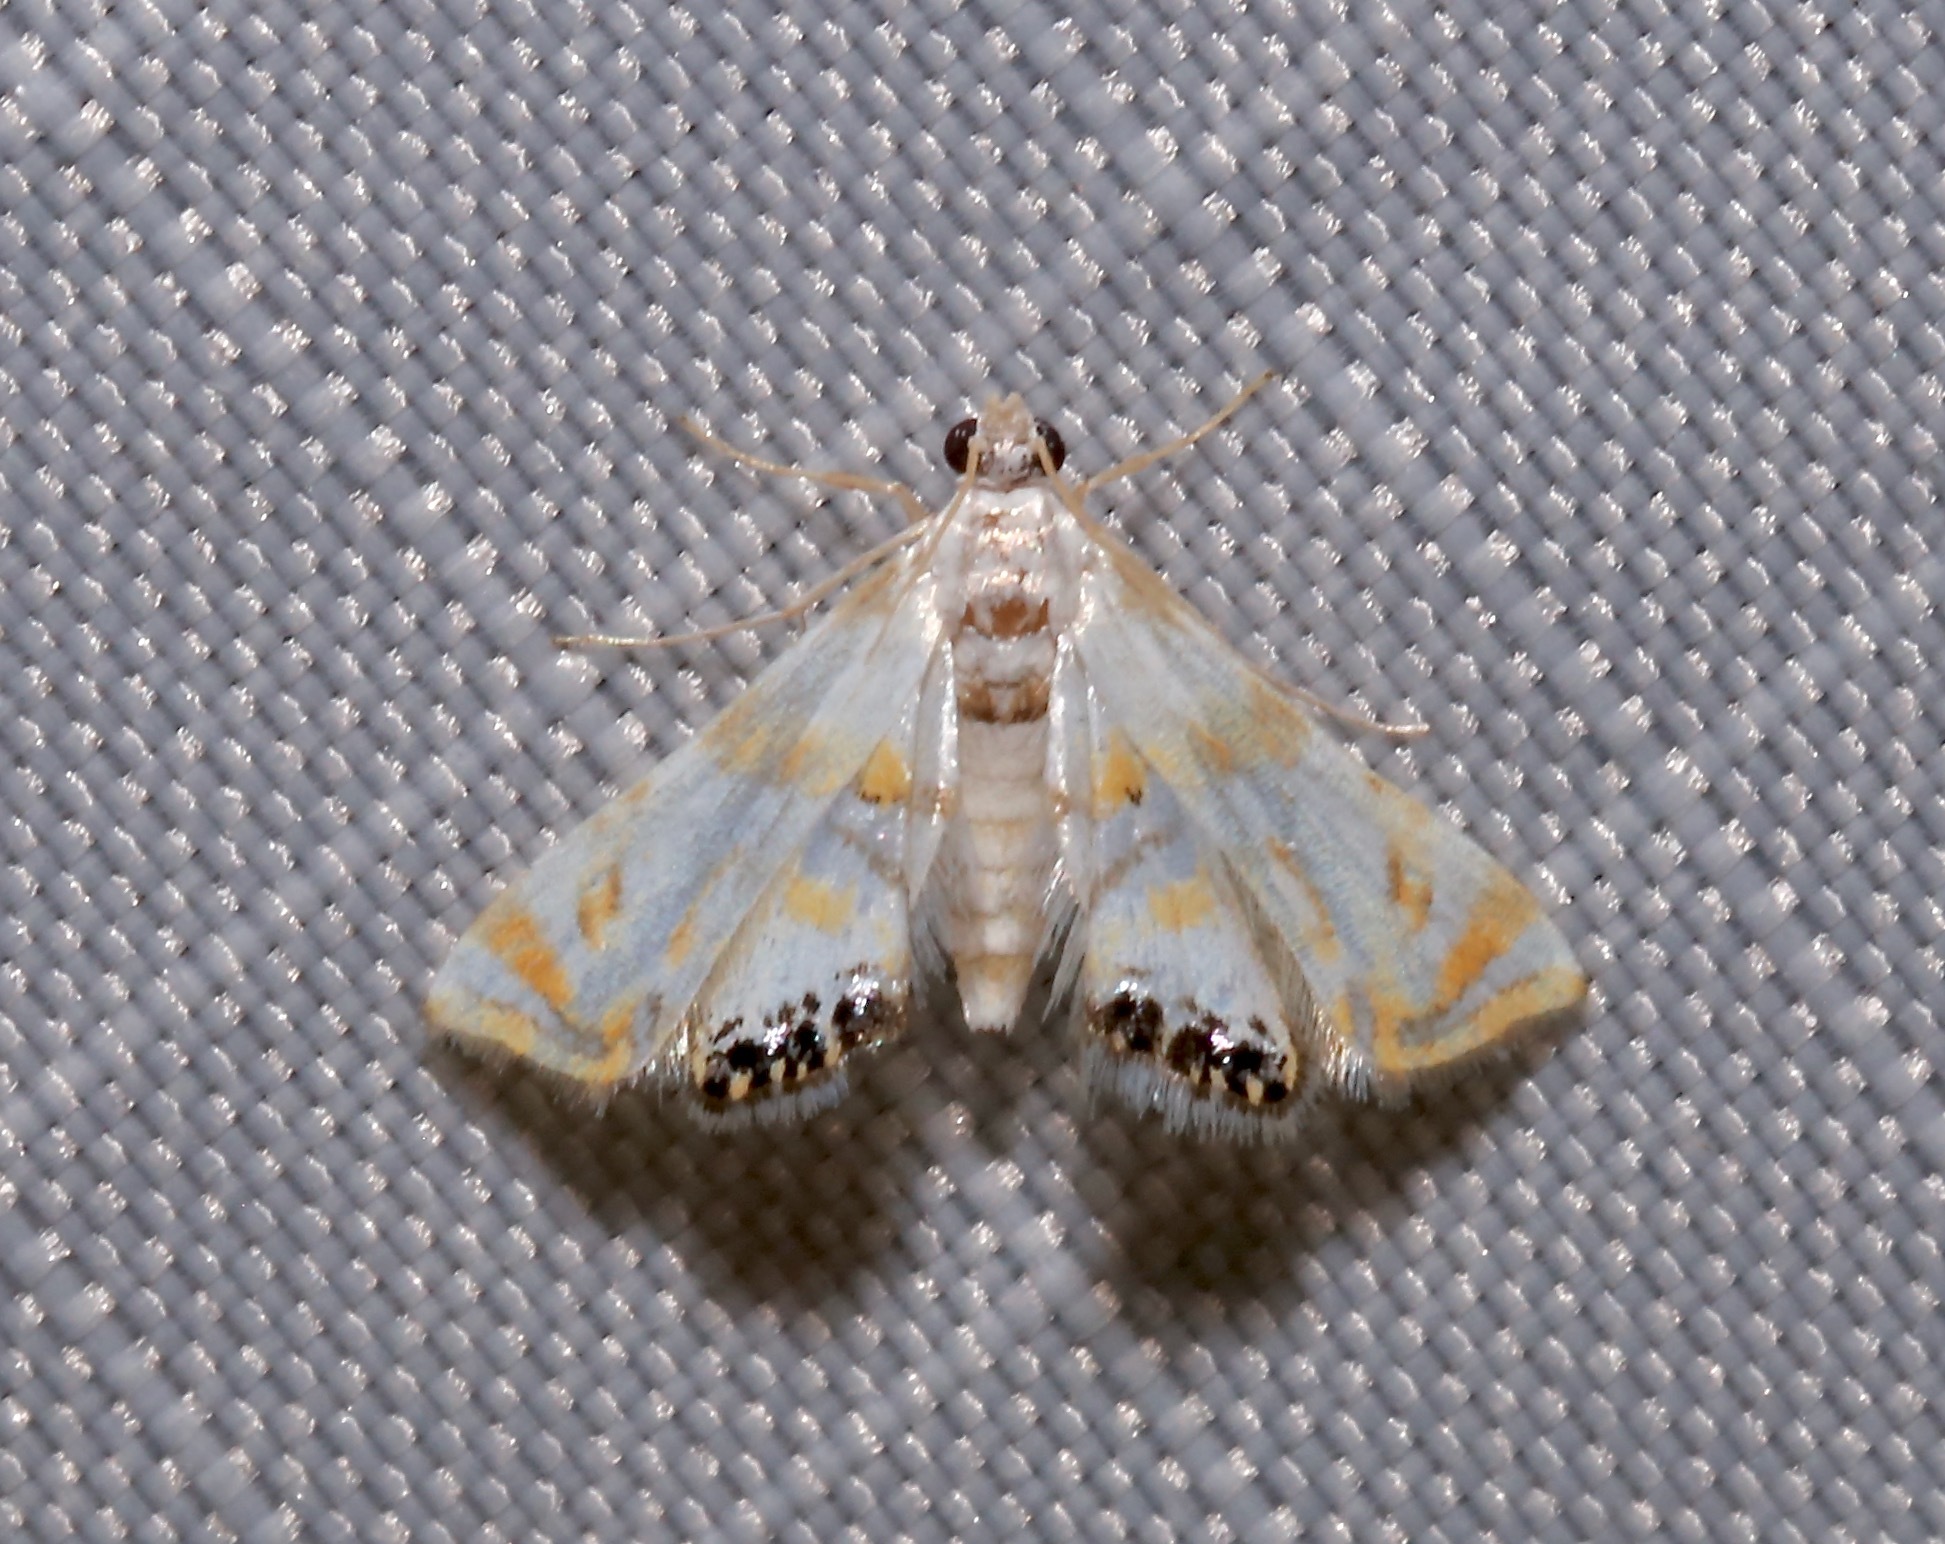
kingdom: Animalia
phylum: Arthropoda
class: Insecta
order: Lepidoptera
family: Crambidae
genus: Argyractis
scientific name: Argyractis drumalis
